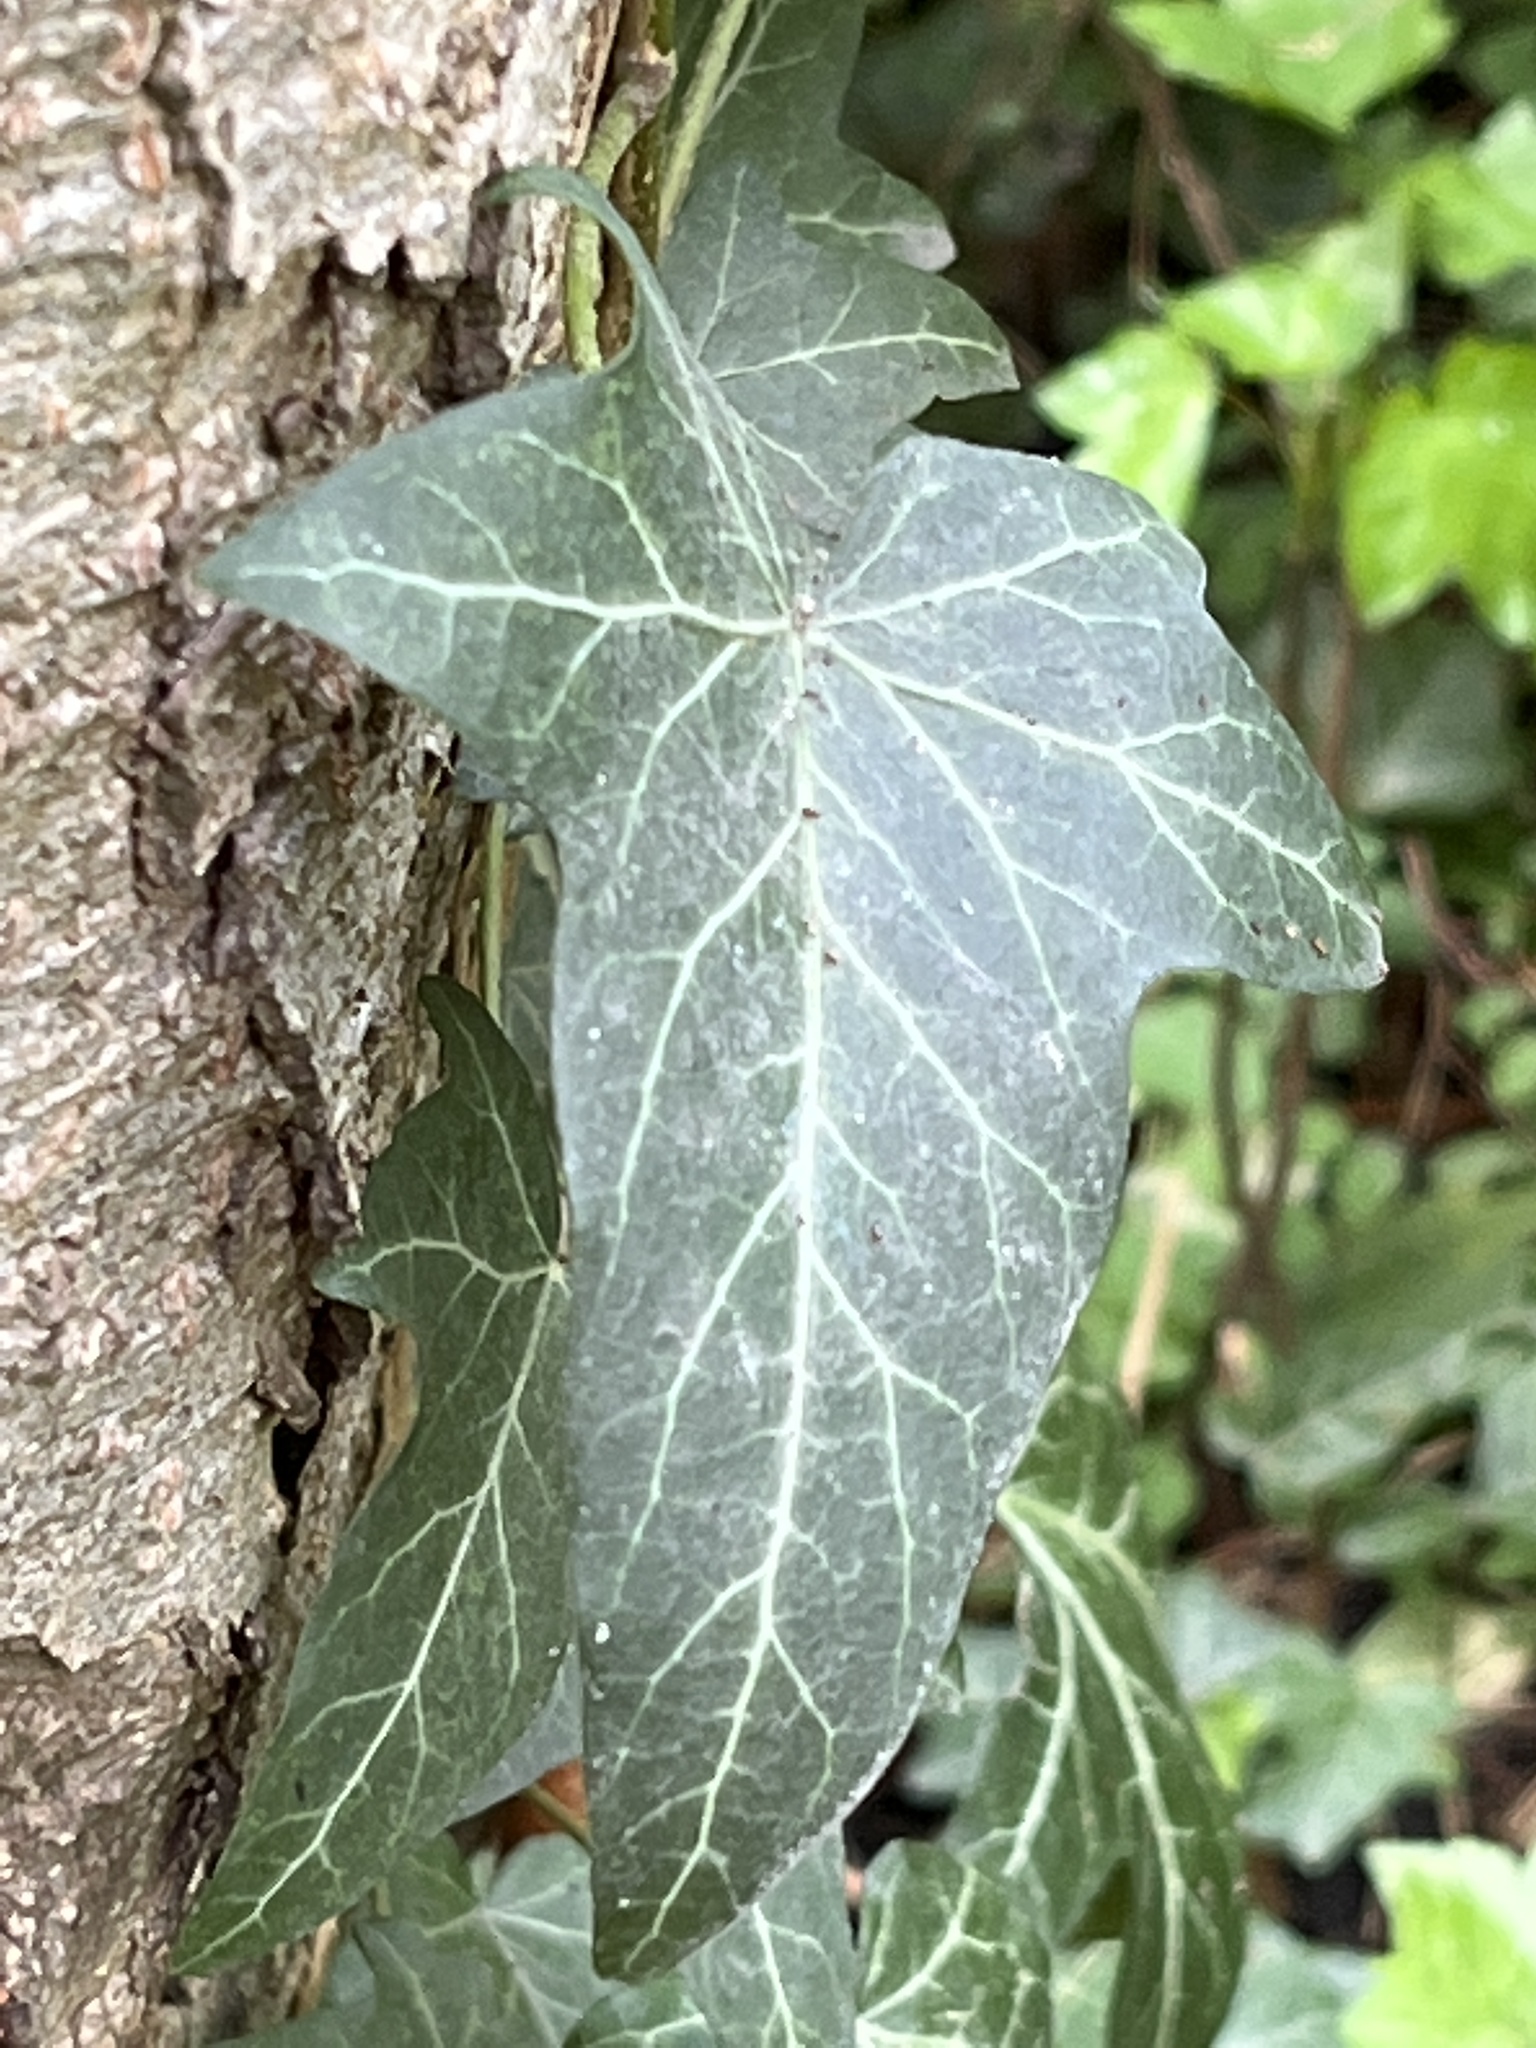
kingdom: Plantae
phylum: Tracheophyta
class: Magnoliopsida
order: Apiales
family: Araliaceae
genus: Hedera
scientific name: Hedera helix
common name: Ivy
